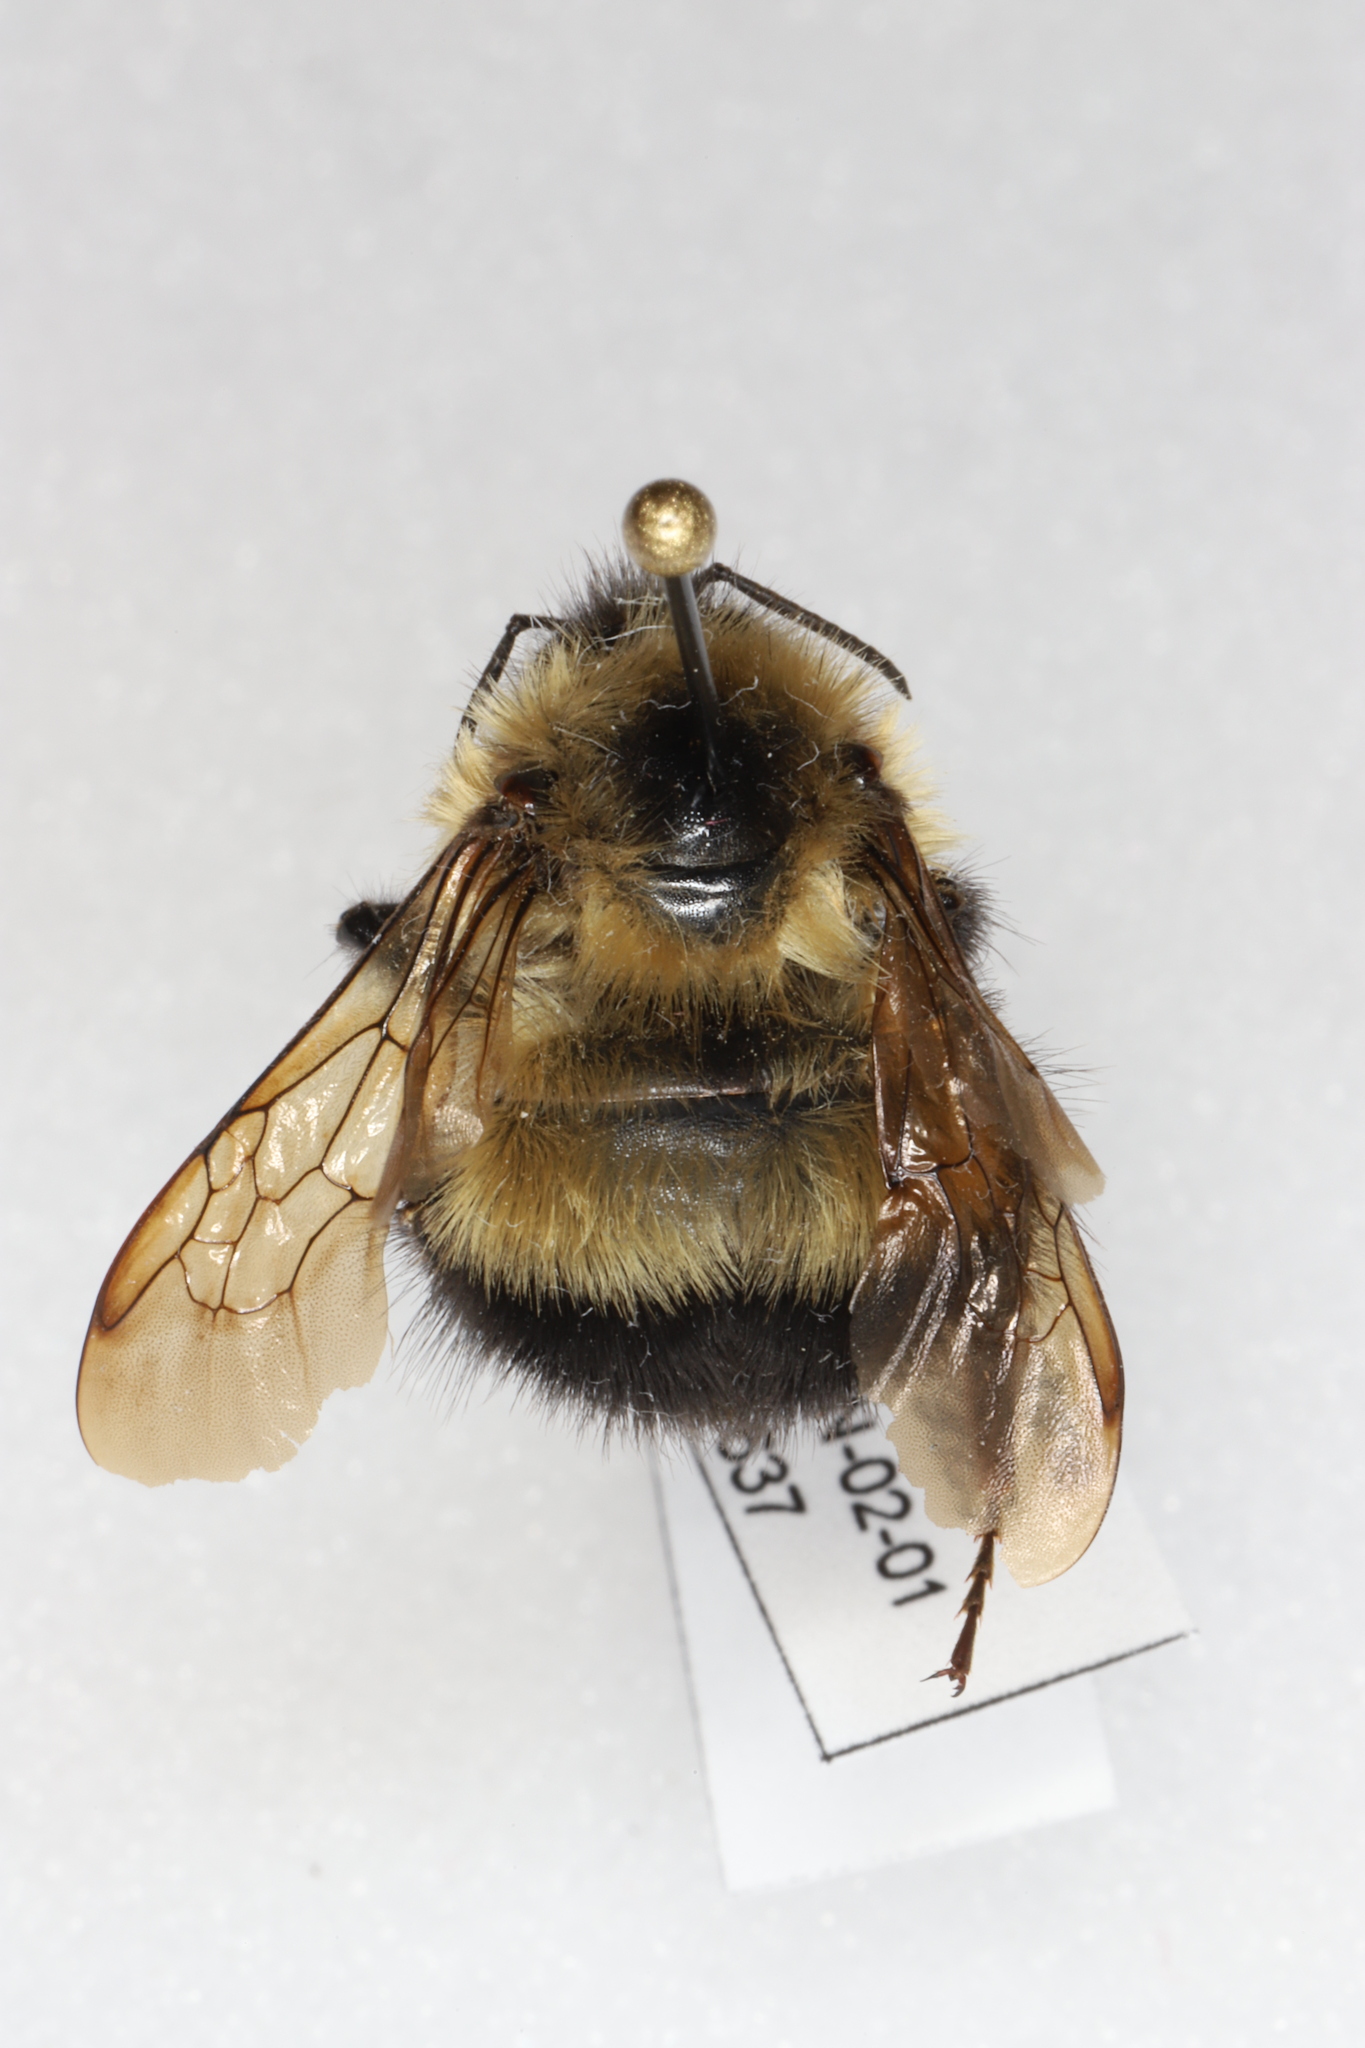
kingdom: Animalia
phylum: Arthropoda
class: Insecta
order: Hymenoptera
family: Apidae
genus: Bombus
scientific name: Bombus vagans
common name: Half-black bumble bee
